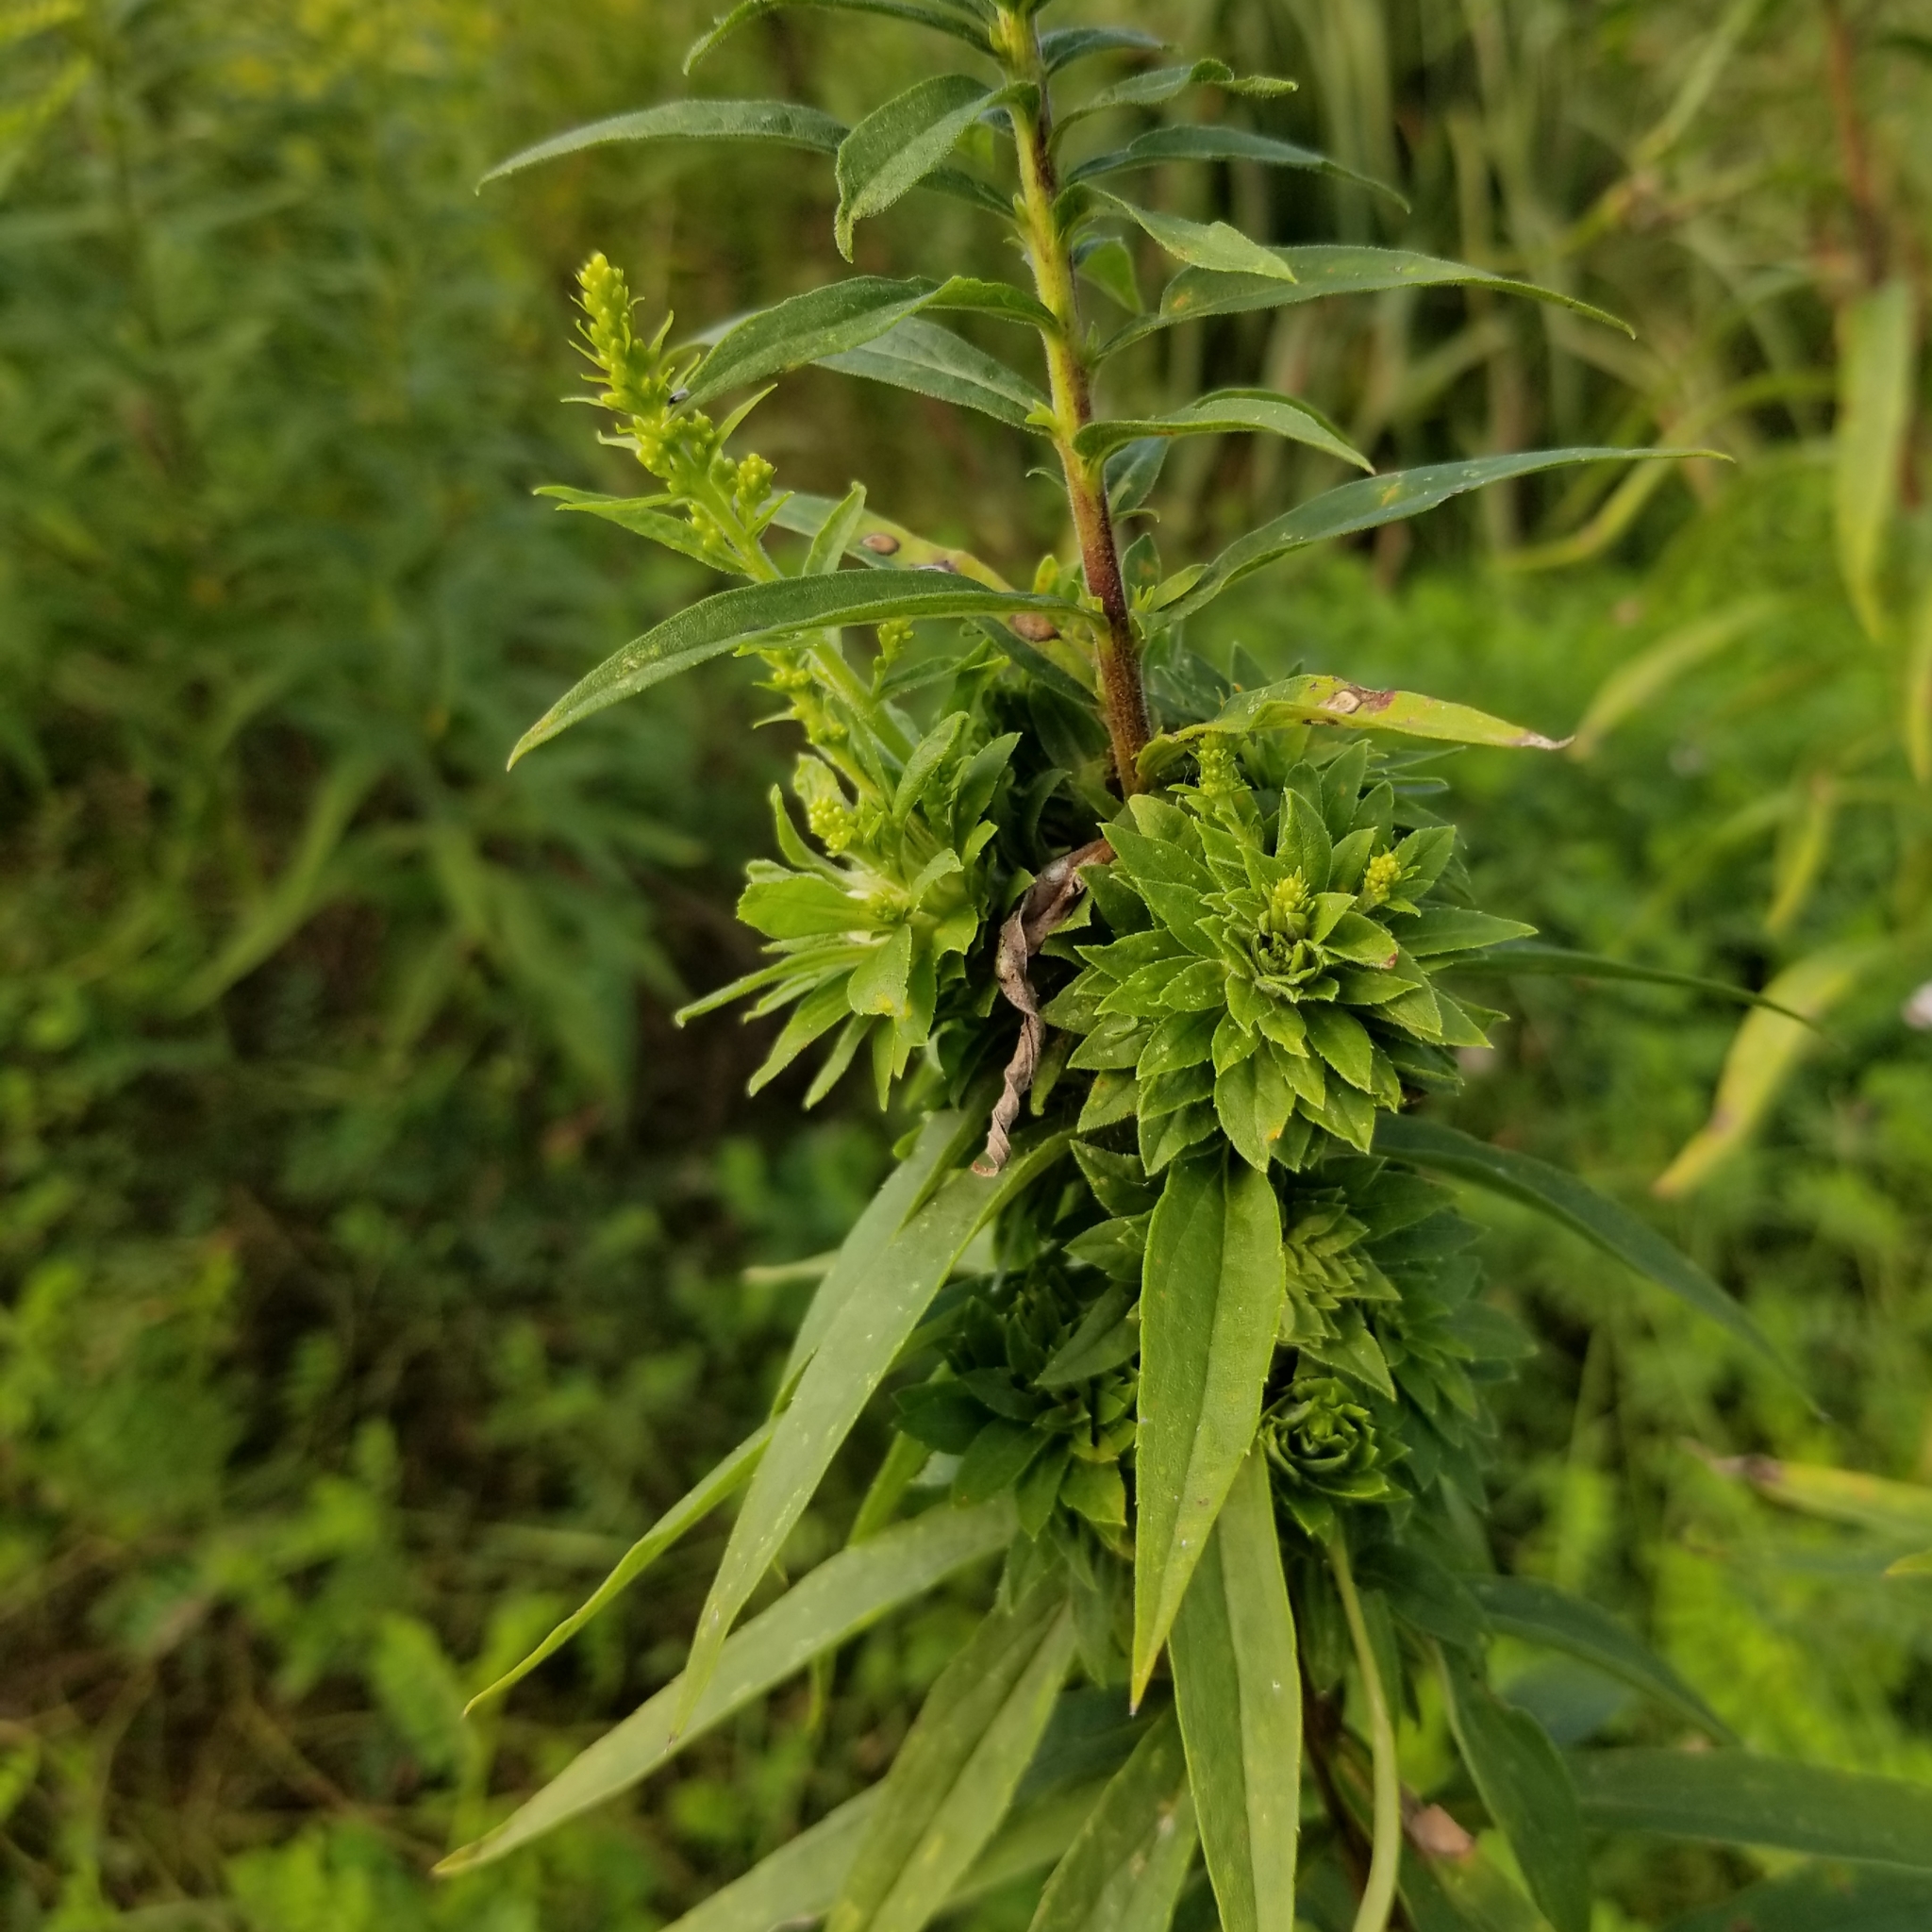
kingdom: Animalia
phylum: Arthropoda
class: Insecta
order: Diptera
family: Tephritidae
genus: Procecidochares
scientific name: Procecidochares atra
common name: Goldenrod brussels sprout gall fly
